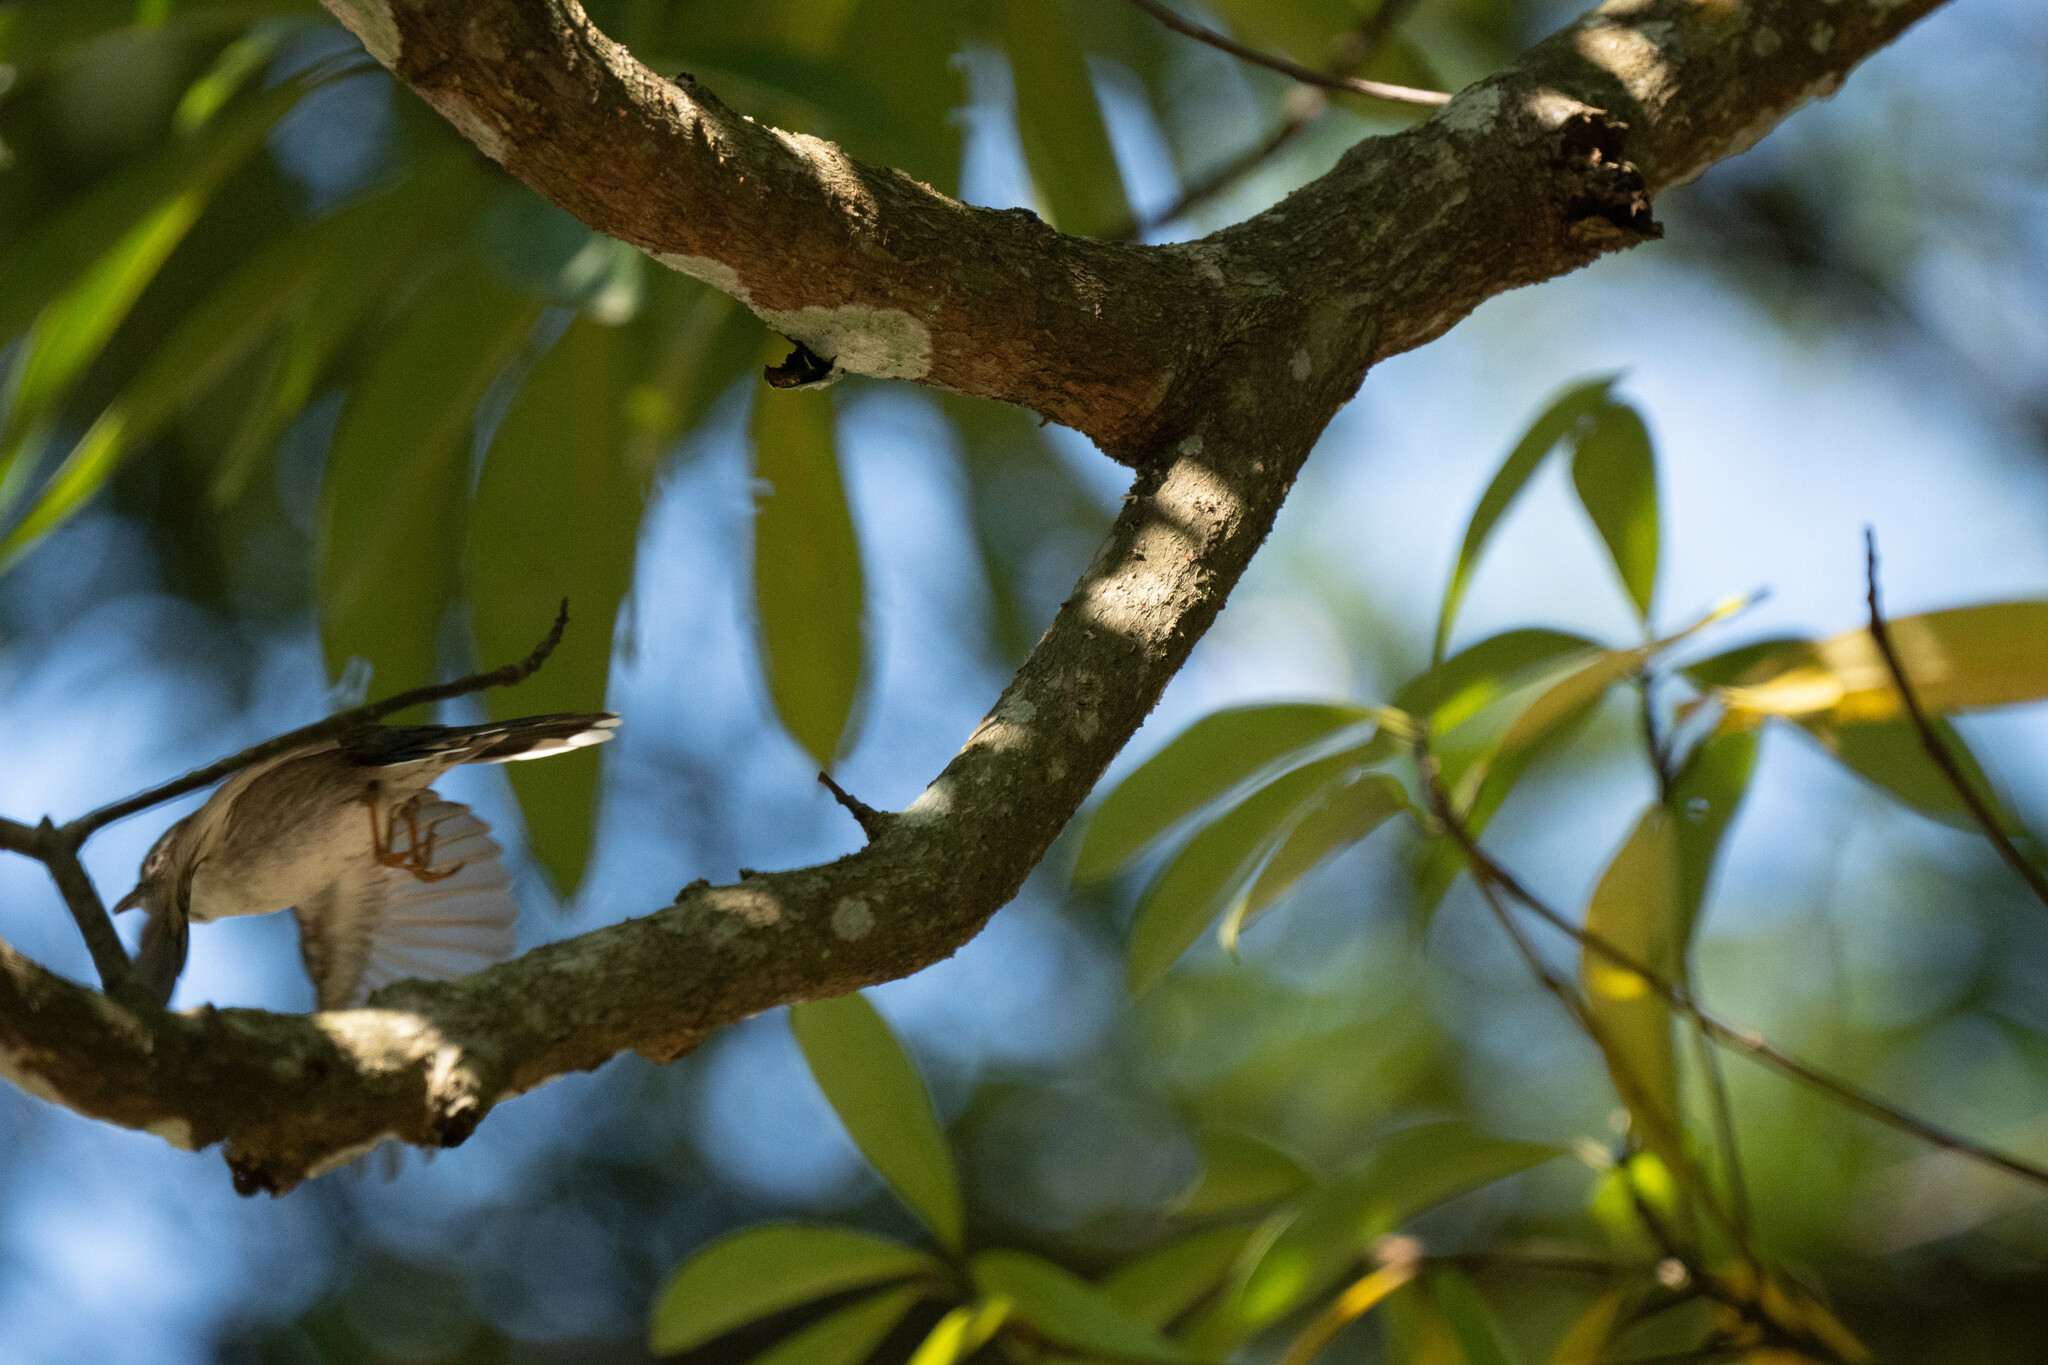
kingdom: Animalia
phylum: Chordata
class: Aves
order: Passeriformes
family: Zosteropidae
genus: Yuhina
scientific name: Yuhina torqueola
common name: Indochinese yuhina
